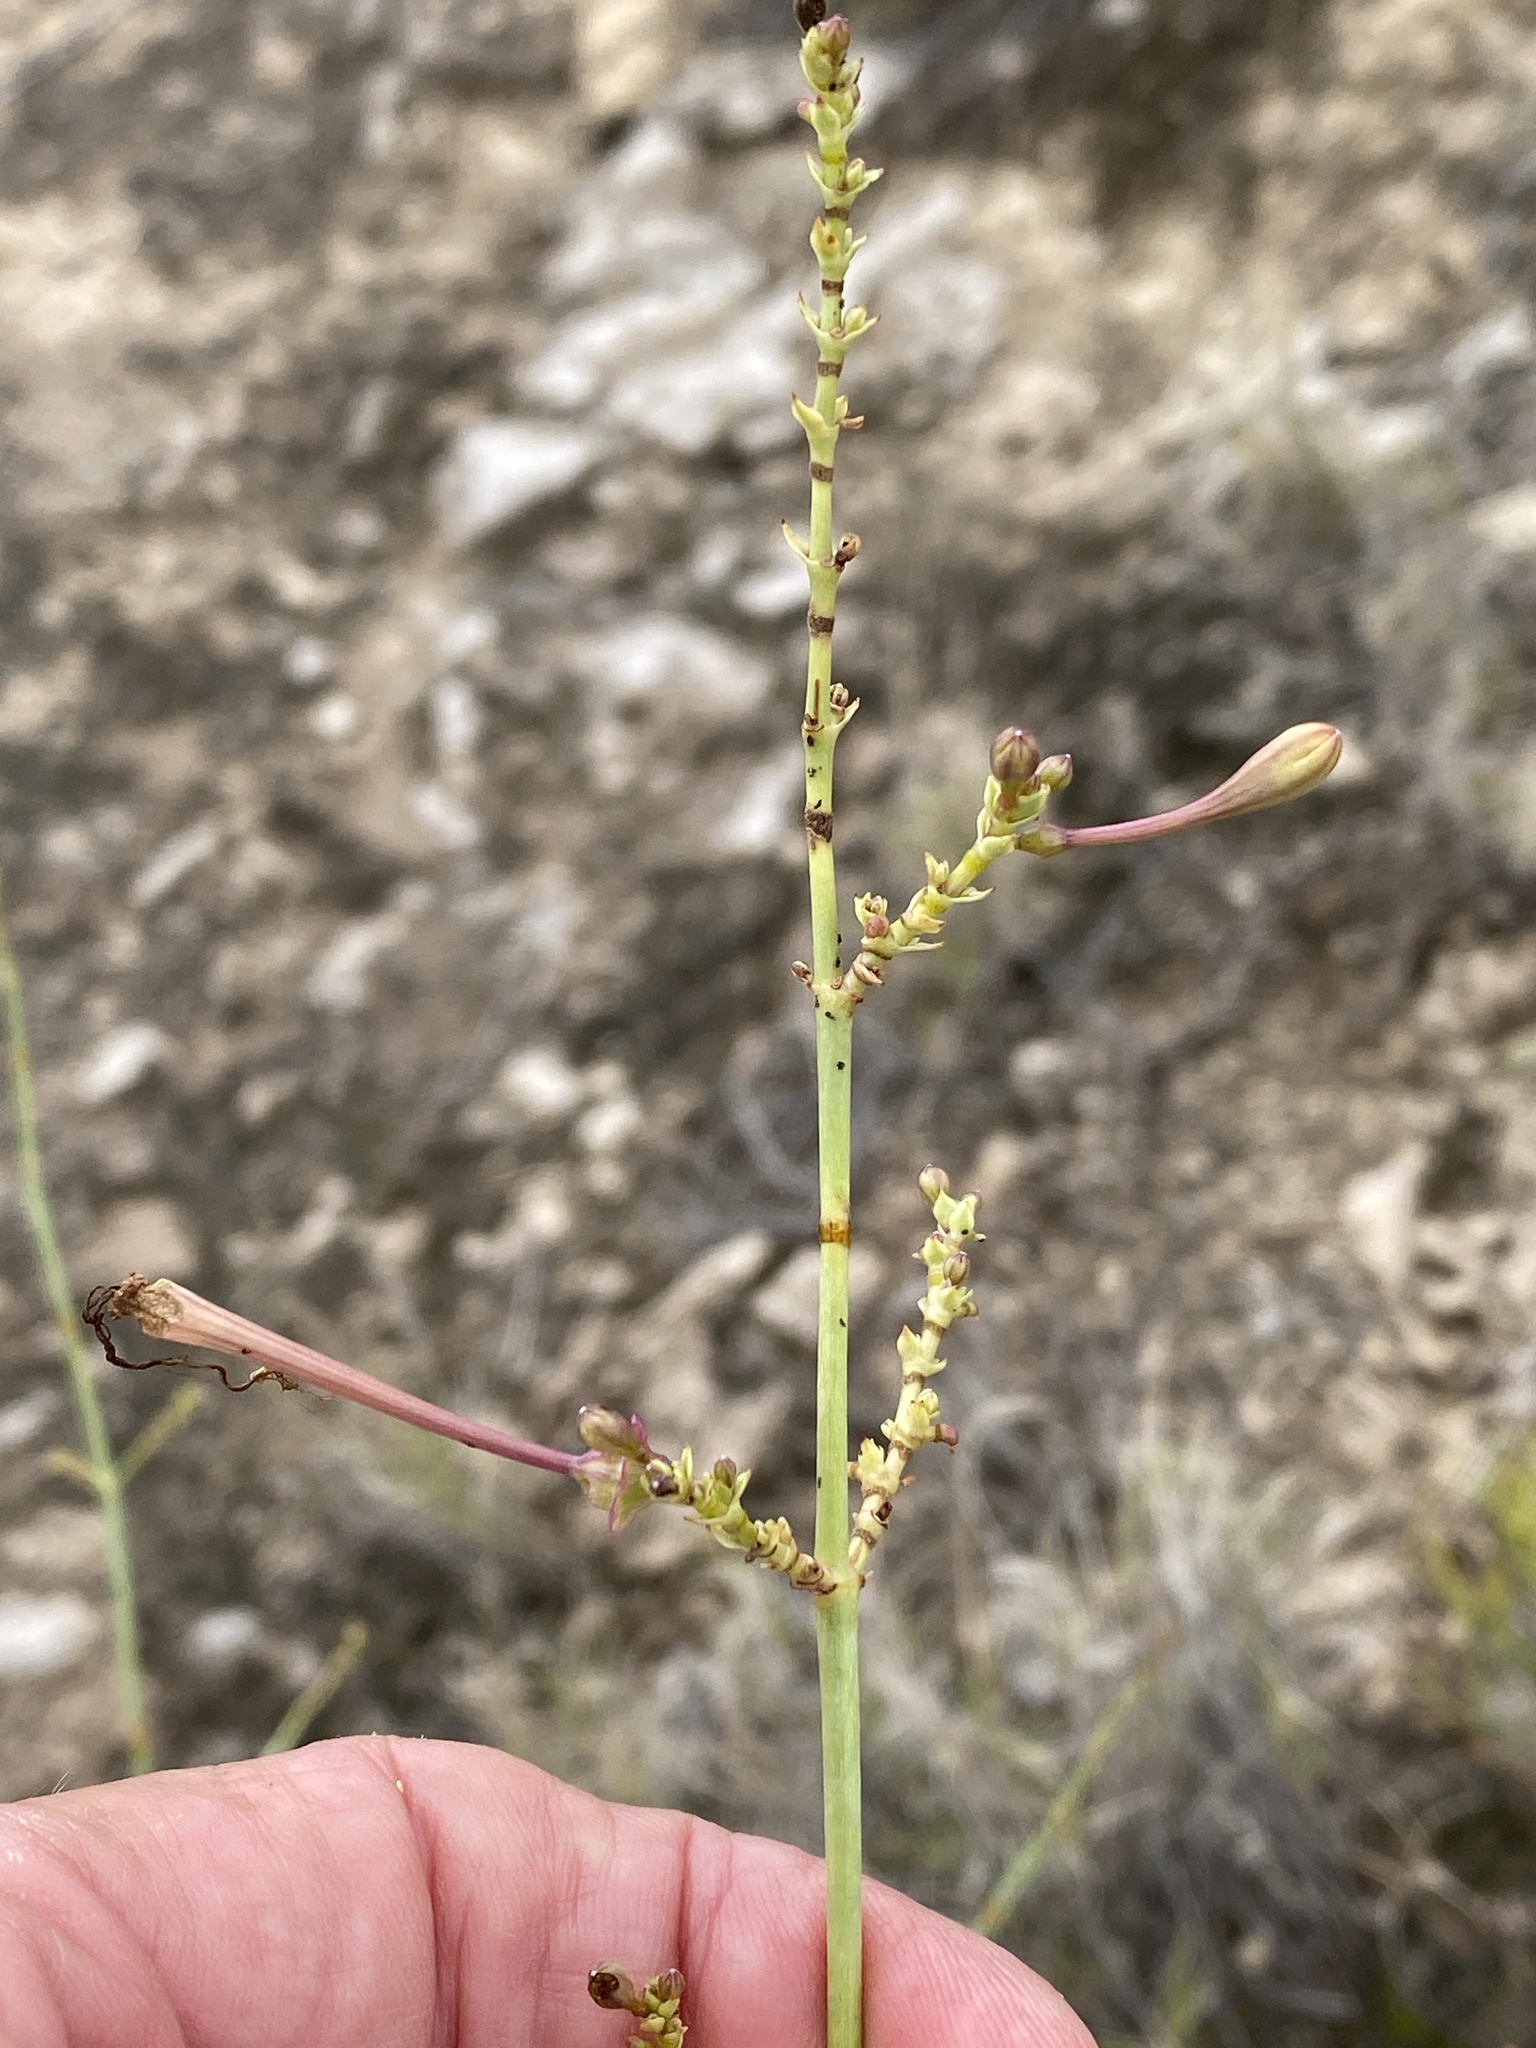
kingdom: Plantae
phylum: Tracheophyta
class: Magnoliopsida
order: Caryophyllales
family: Nyctaginaceae
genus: Anulocaulis
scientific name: Anulocaulis leiosolenus
